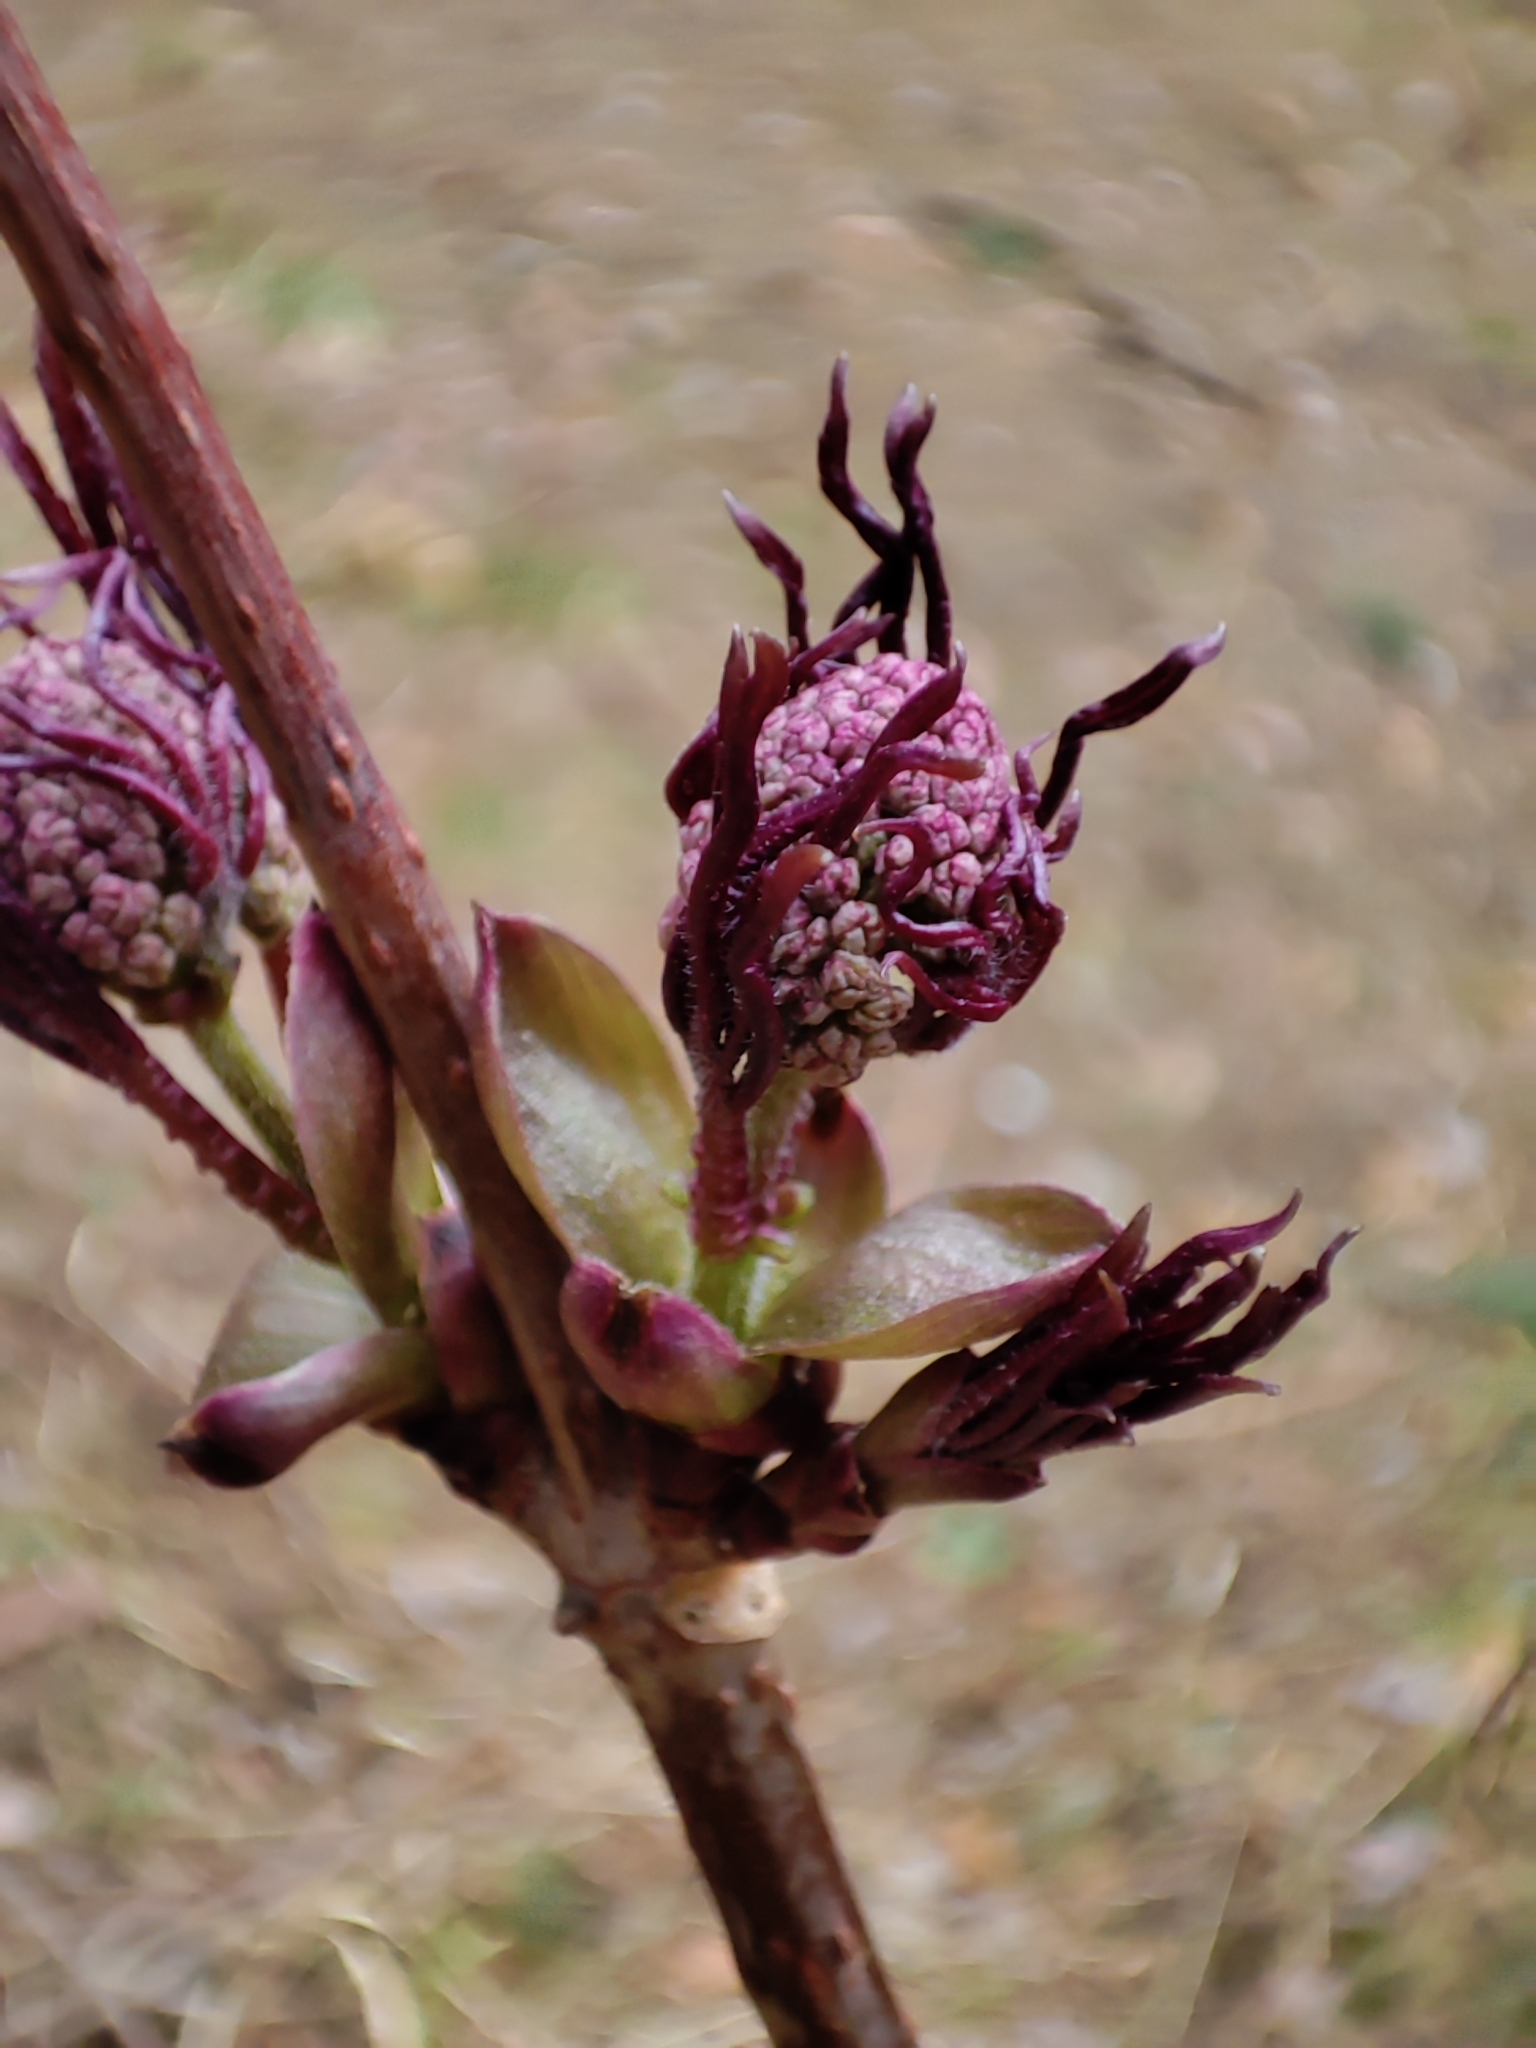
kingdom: Plantae
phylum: Tracheophyta
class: Magnoliopsida
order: Dipsacales
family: Viburnaceae
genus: Sambucus
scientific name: Sambucus racemosa
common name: Red-berried elder
